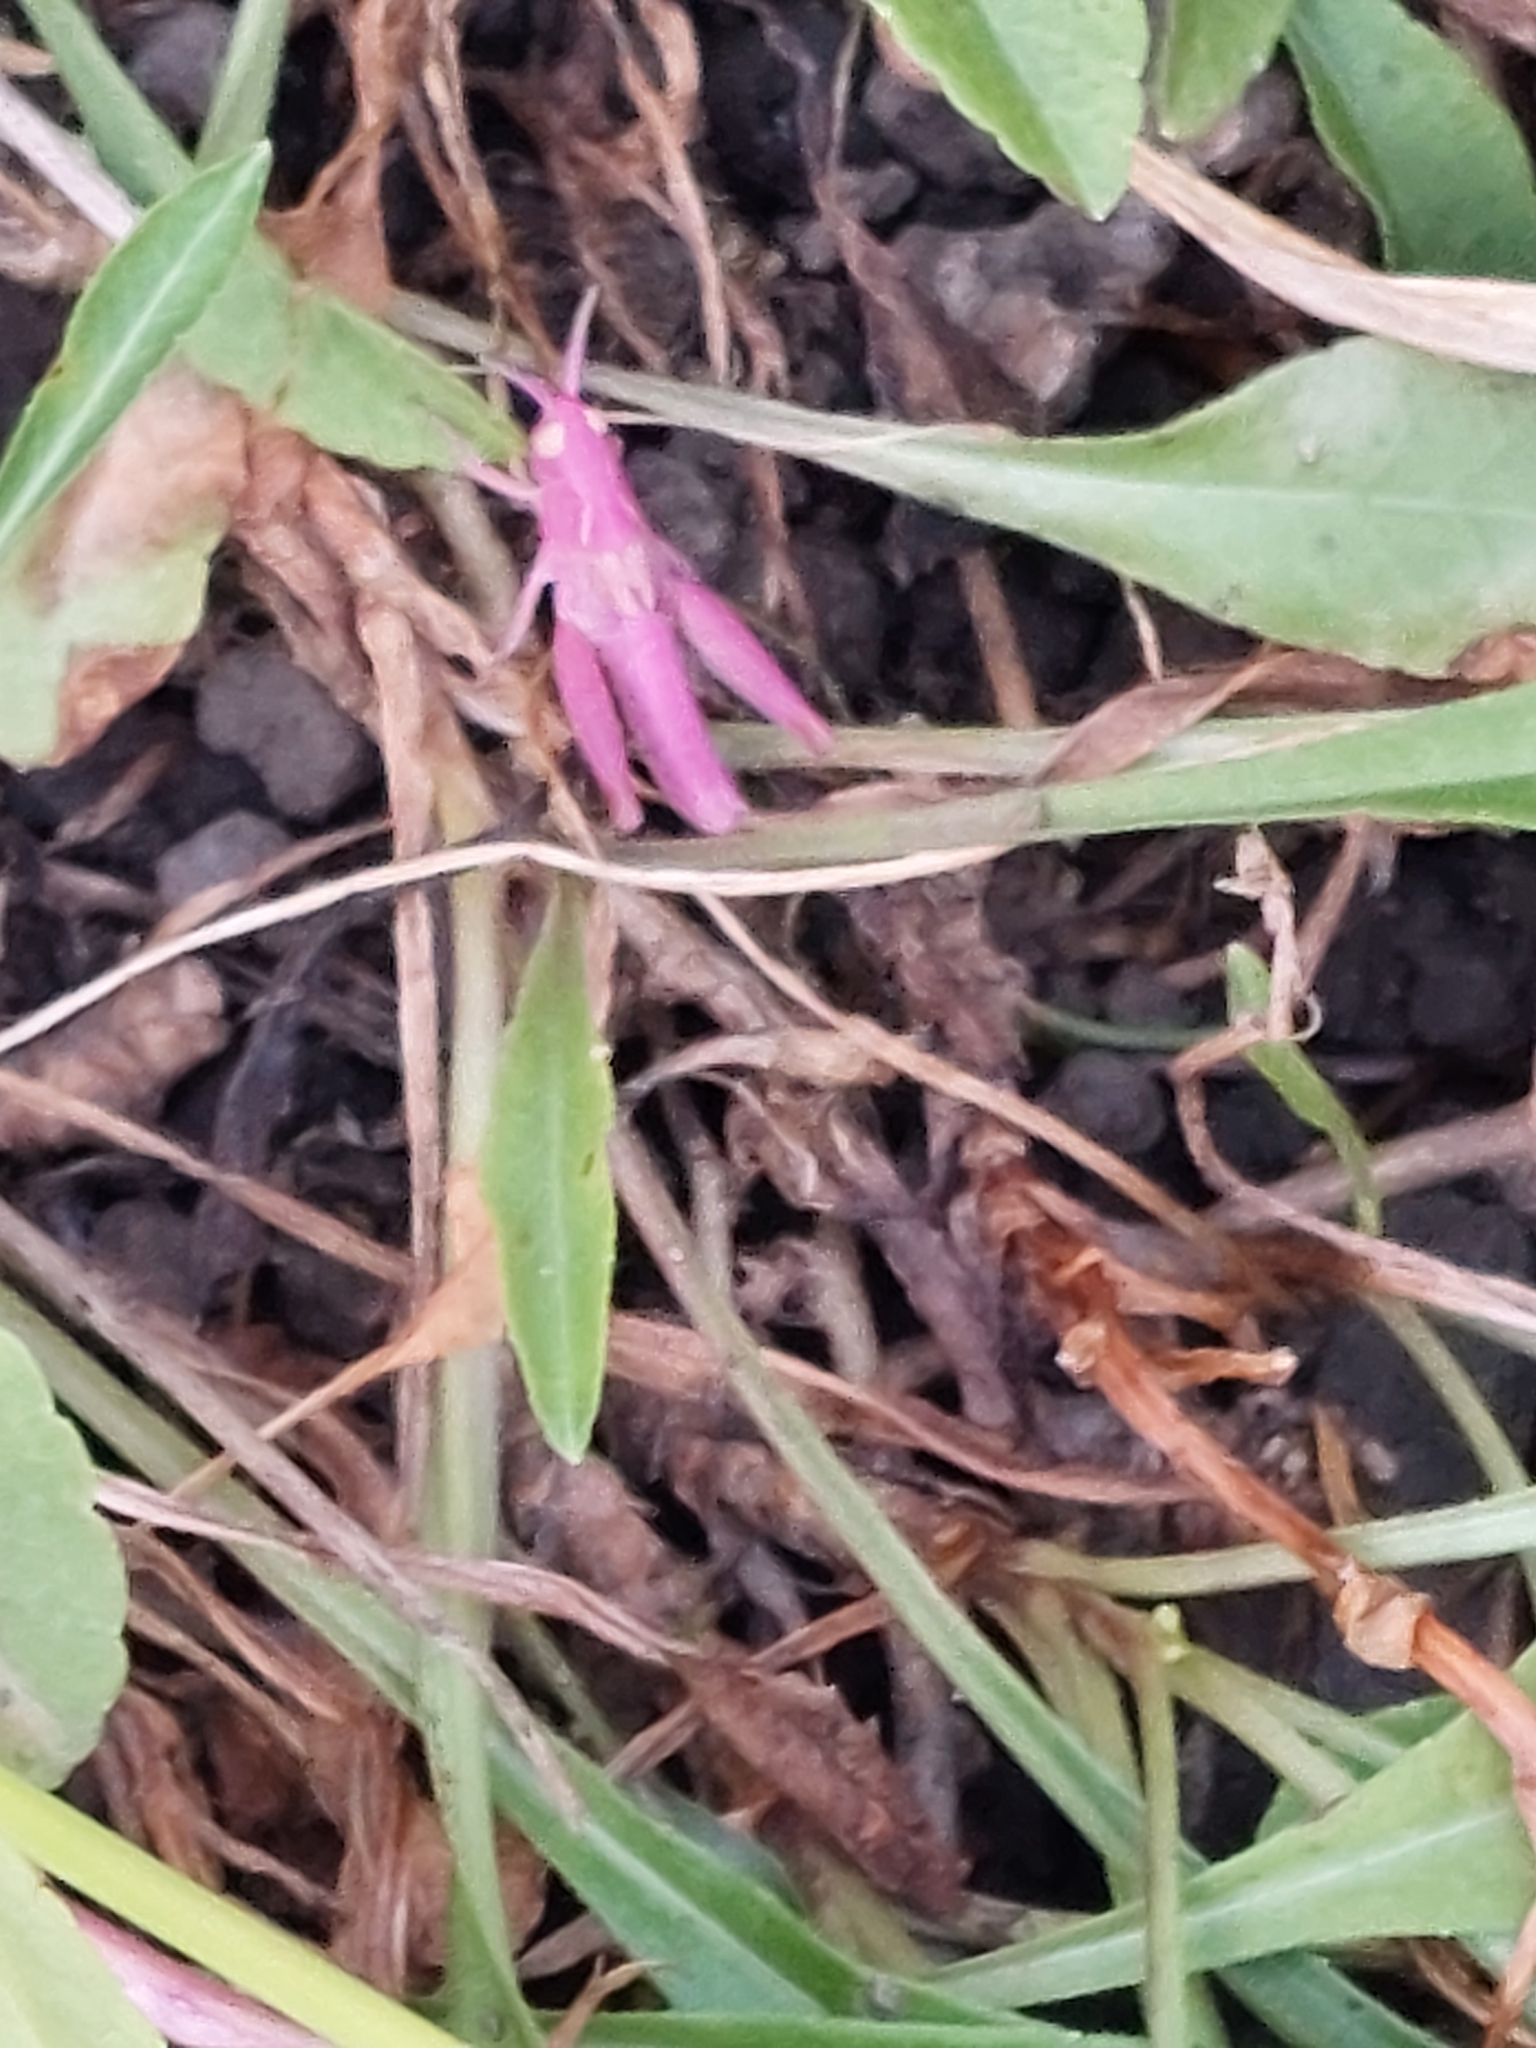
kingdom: Animalia
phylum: Arthropoda
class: Insecta
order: Orthoptera
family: Acrididae
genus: Chorthippus
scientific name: Chorthippus brunneus
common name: Field grasshopper
